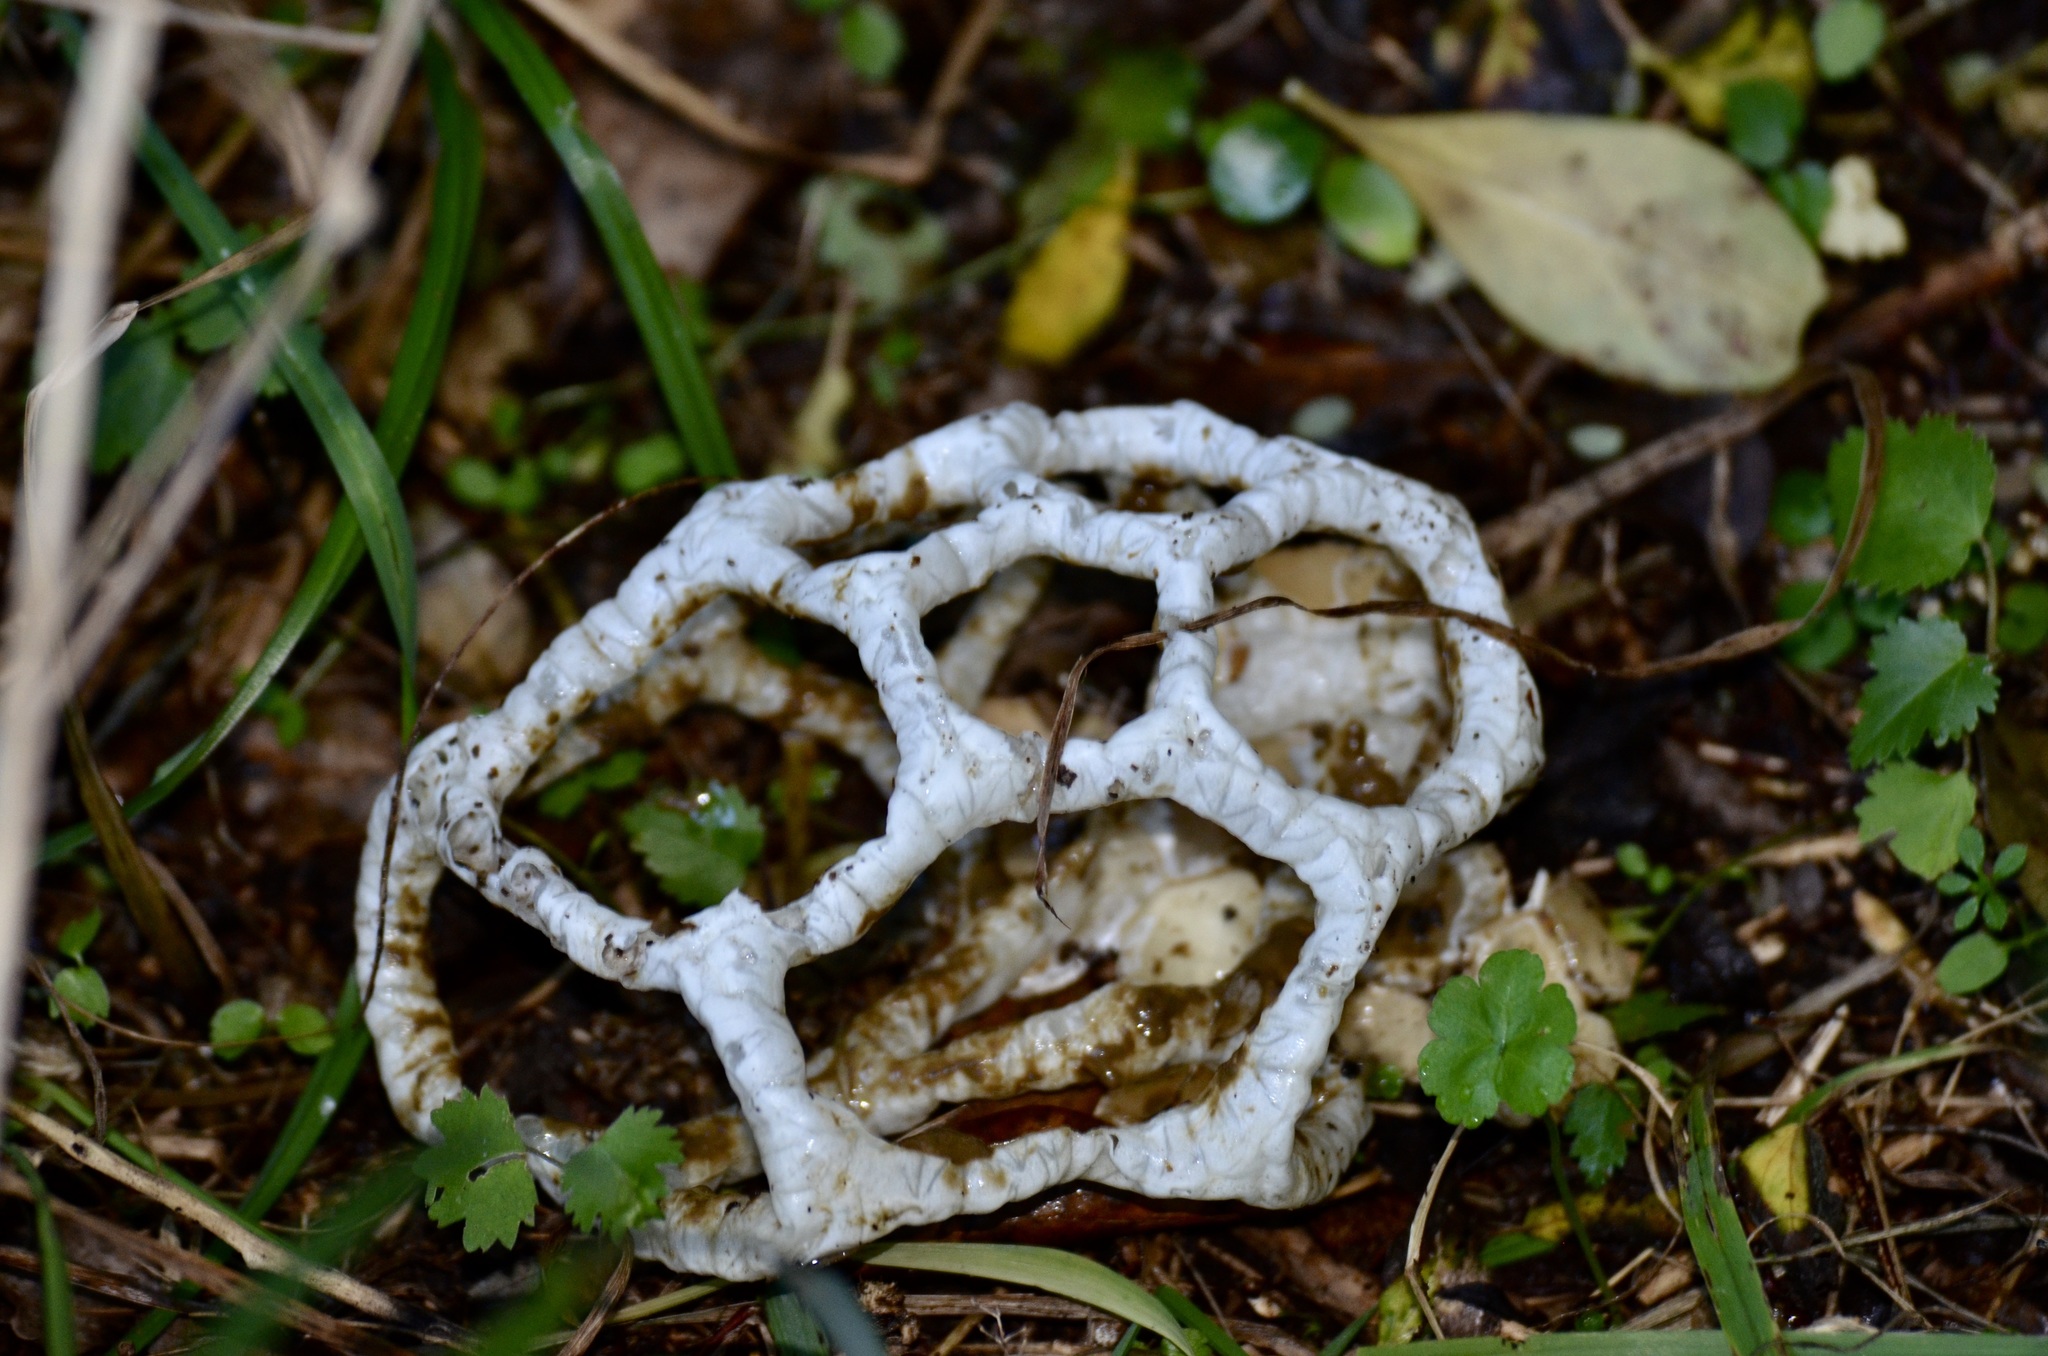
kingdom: Fungi
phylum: Basidiomycota
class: Agaricomycetes
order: Phallales
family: Phallaceae
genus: Ileodictyon
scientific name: Ileodictyon cibarium
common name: Basket fungus
